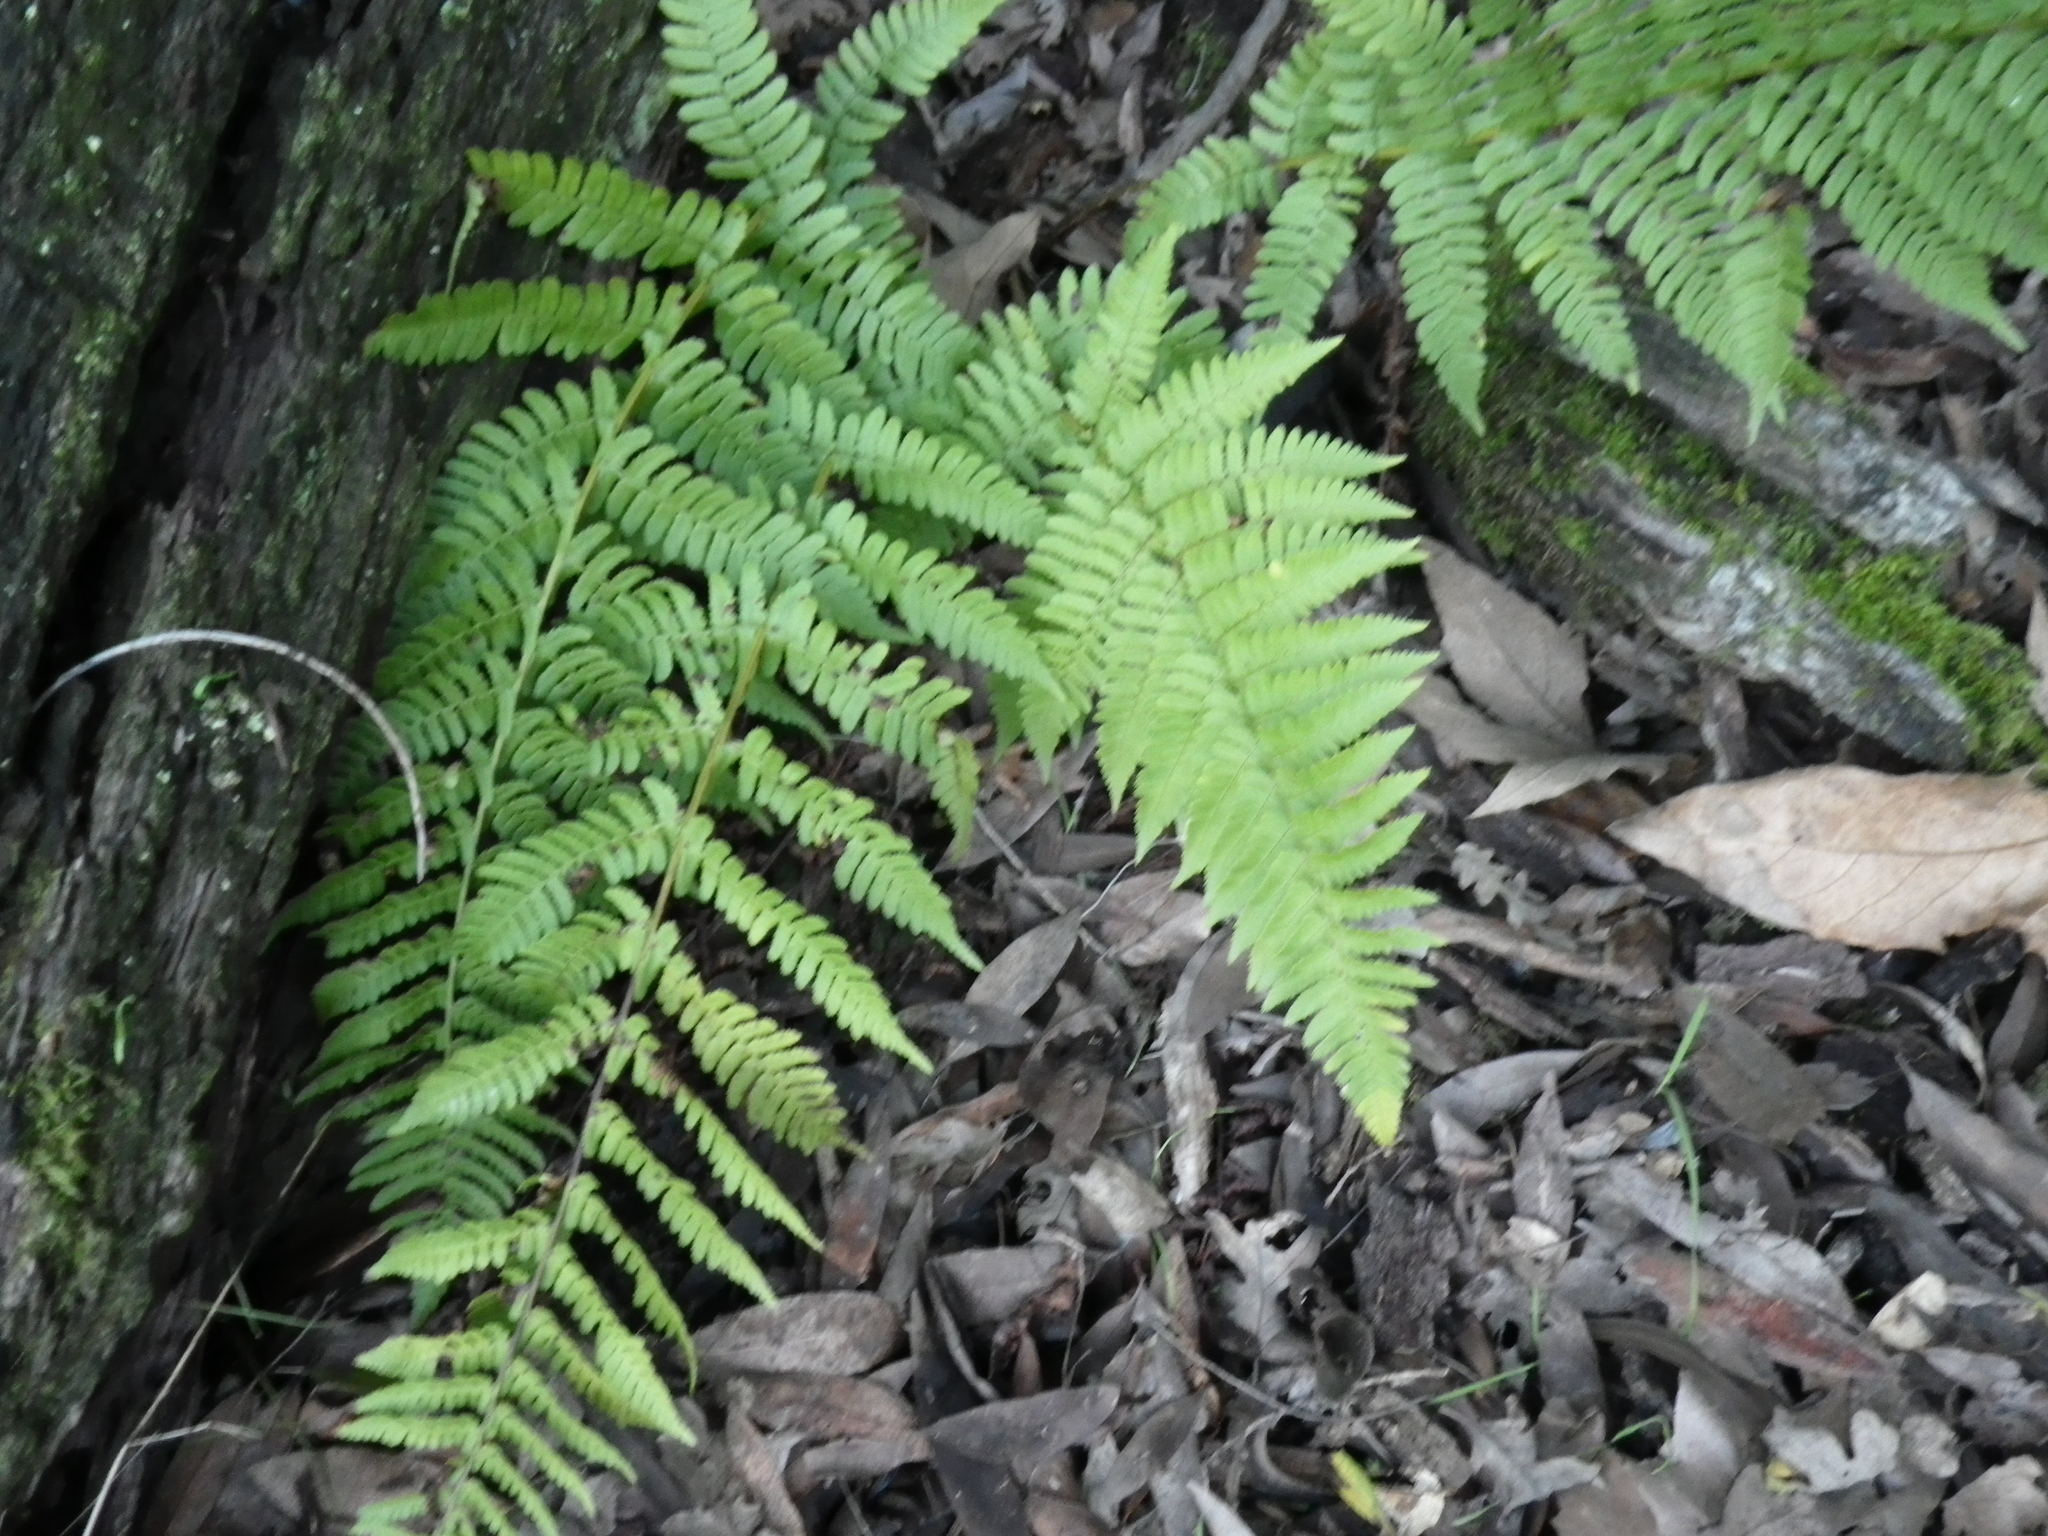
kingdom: Plantae
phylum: Tracheophyta
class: Polypodiopsida
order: Polypodiales
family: Dryopteridaceae
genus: Dryopteris
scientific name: Dryopteris arguta
